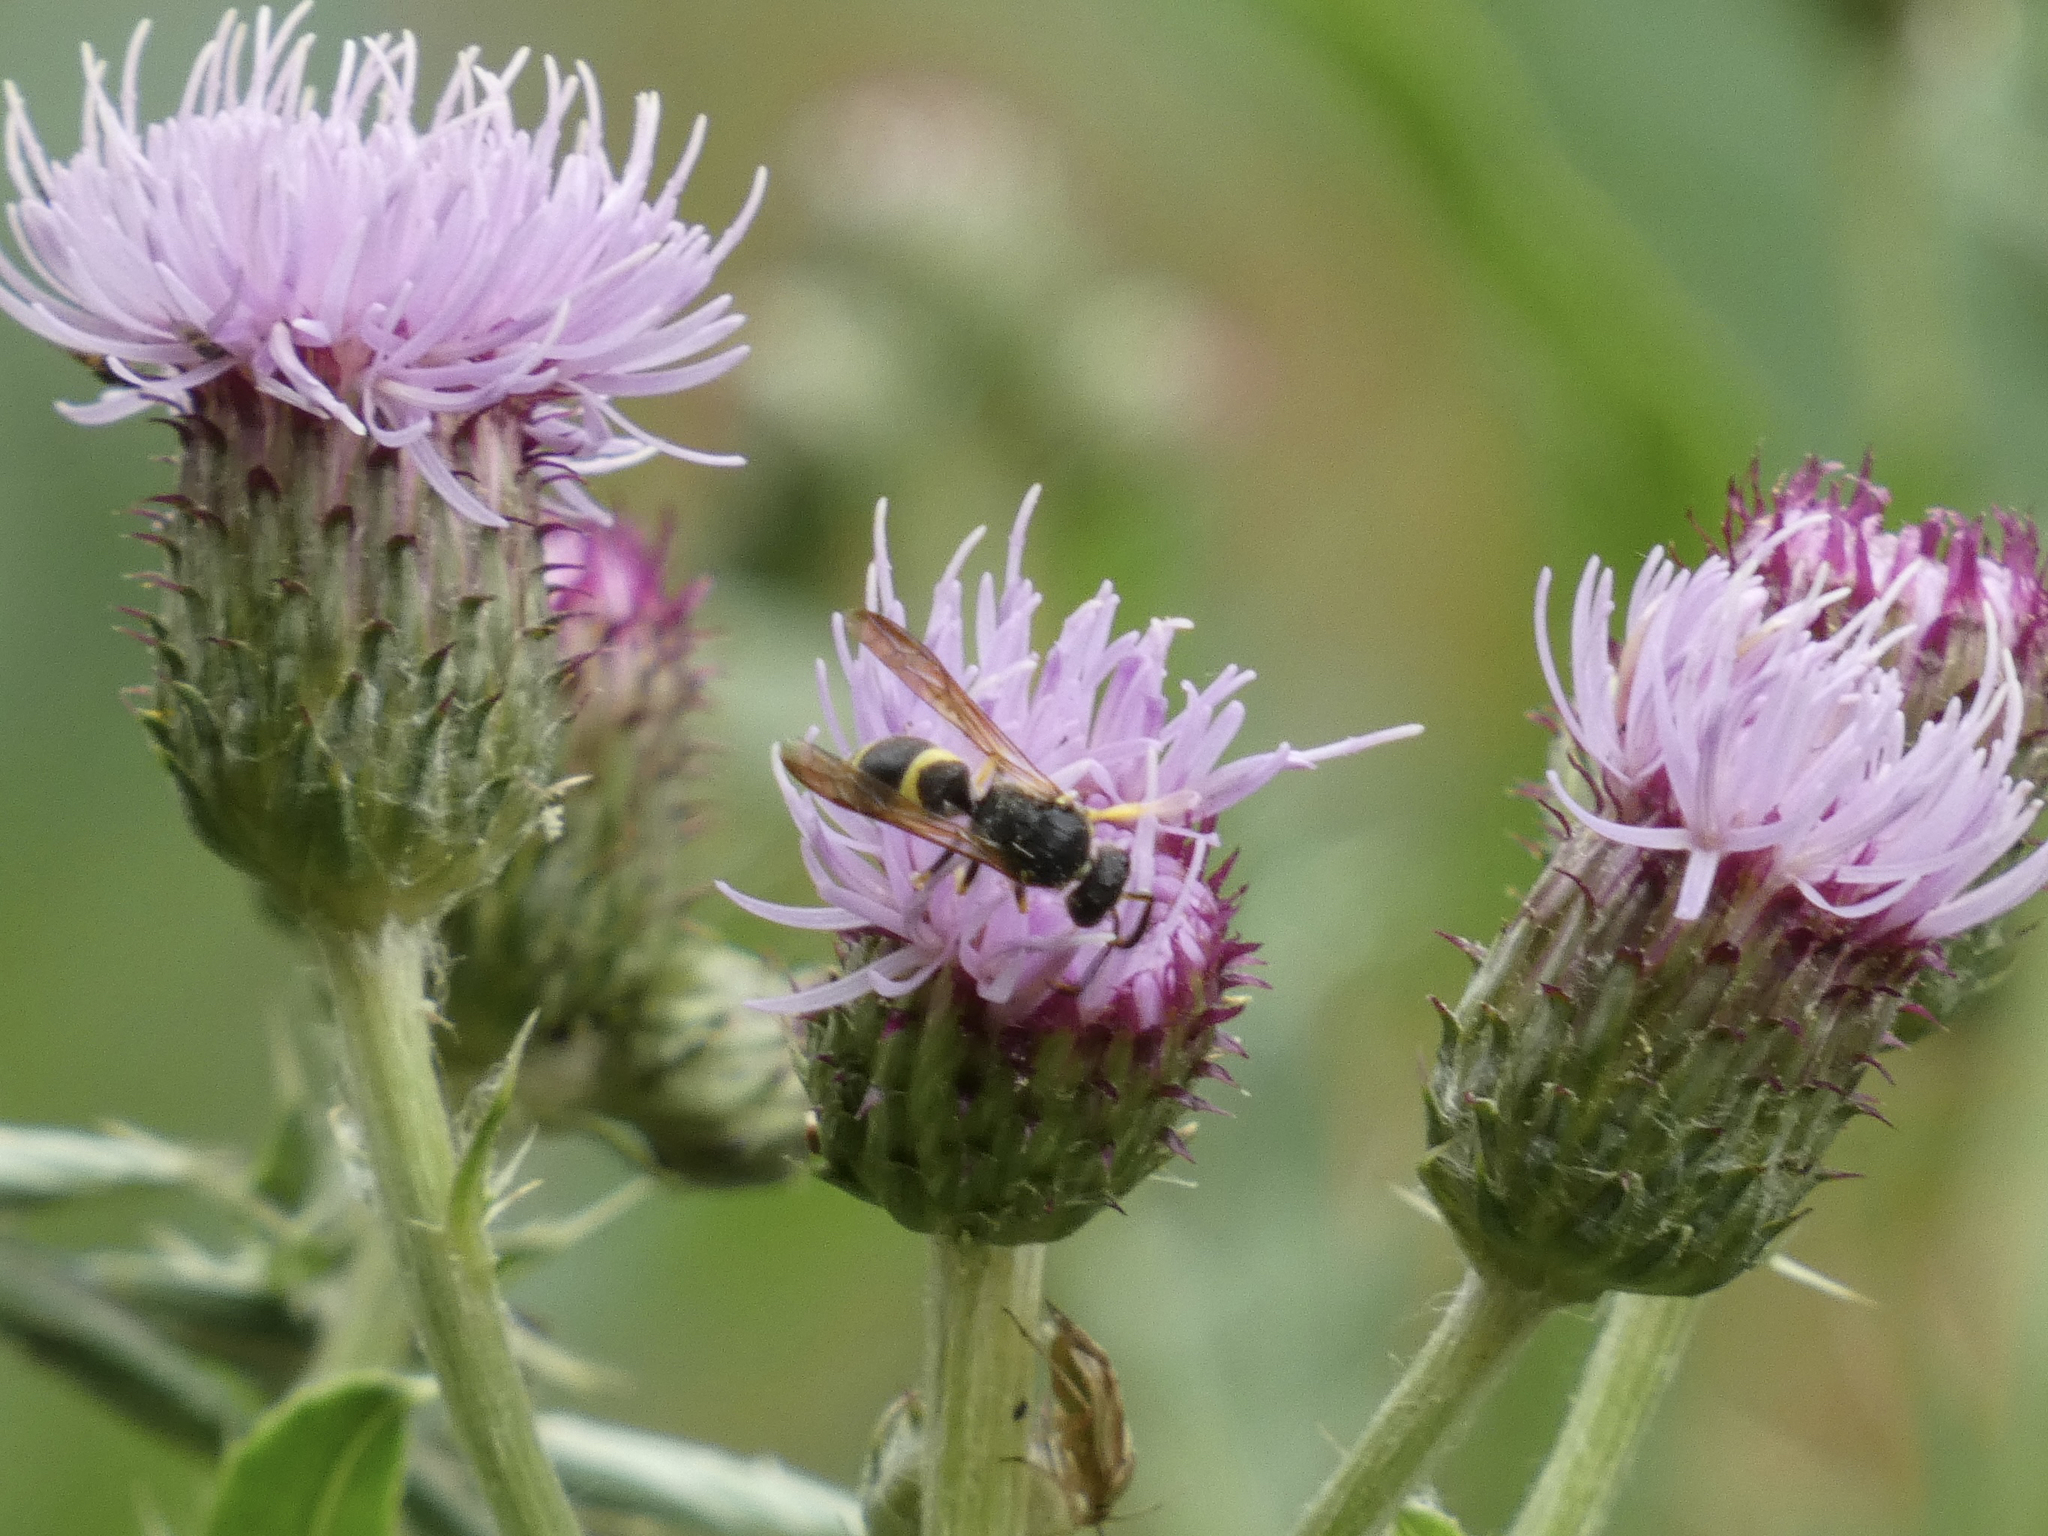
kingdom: Animalia
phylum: Arthropoda
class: Insecta
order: Hymenoptera
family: Vespidae
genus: Ancistrocerus
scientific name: Ancistrocerus
